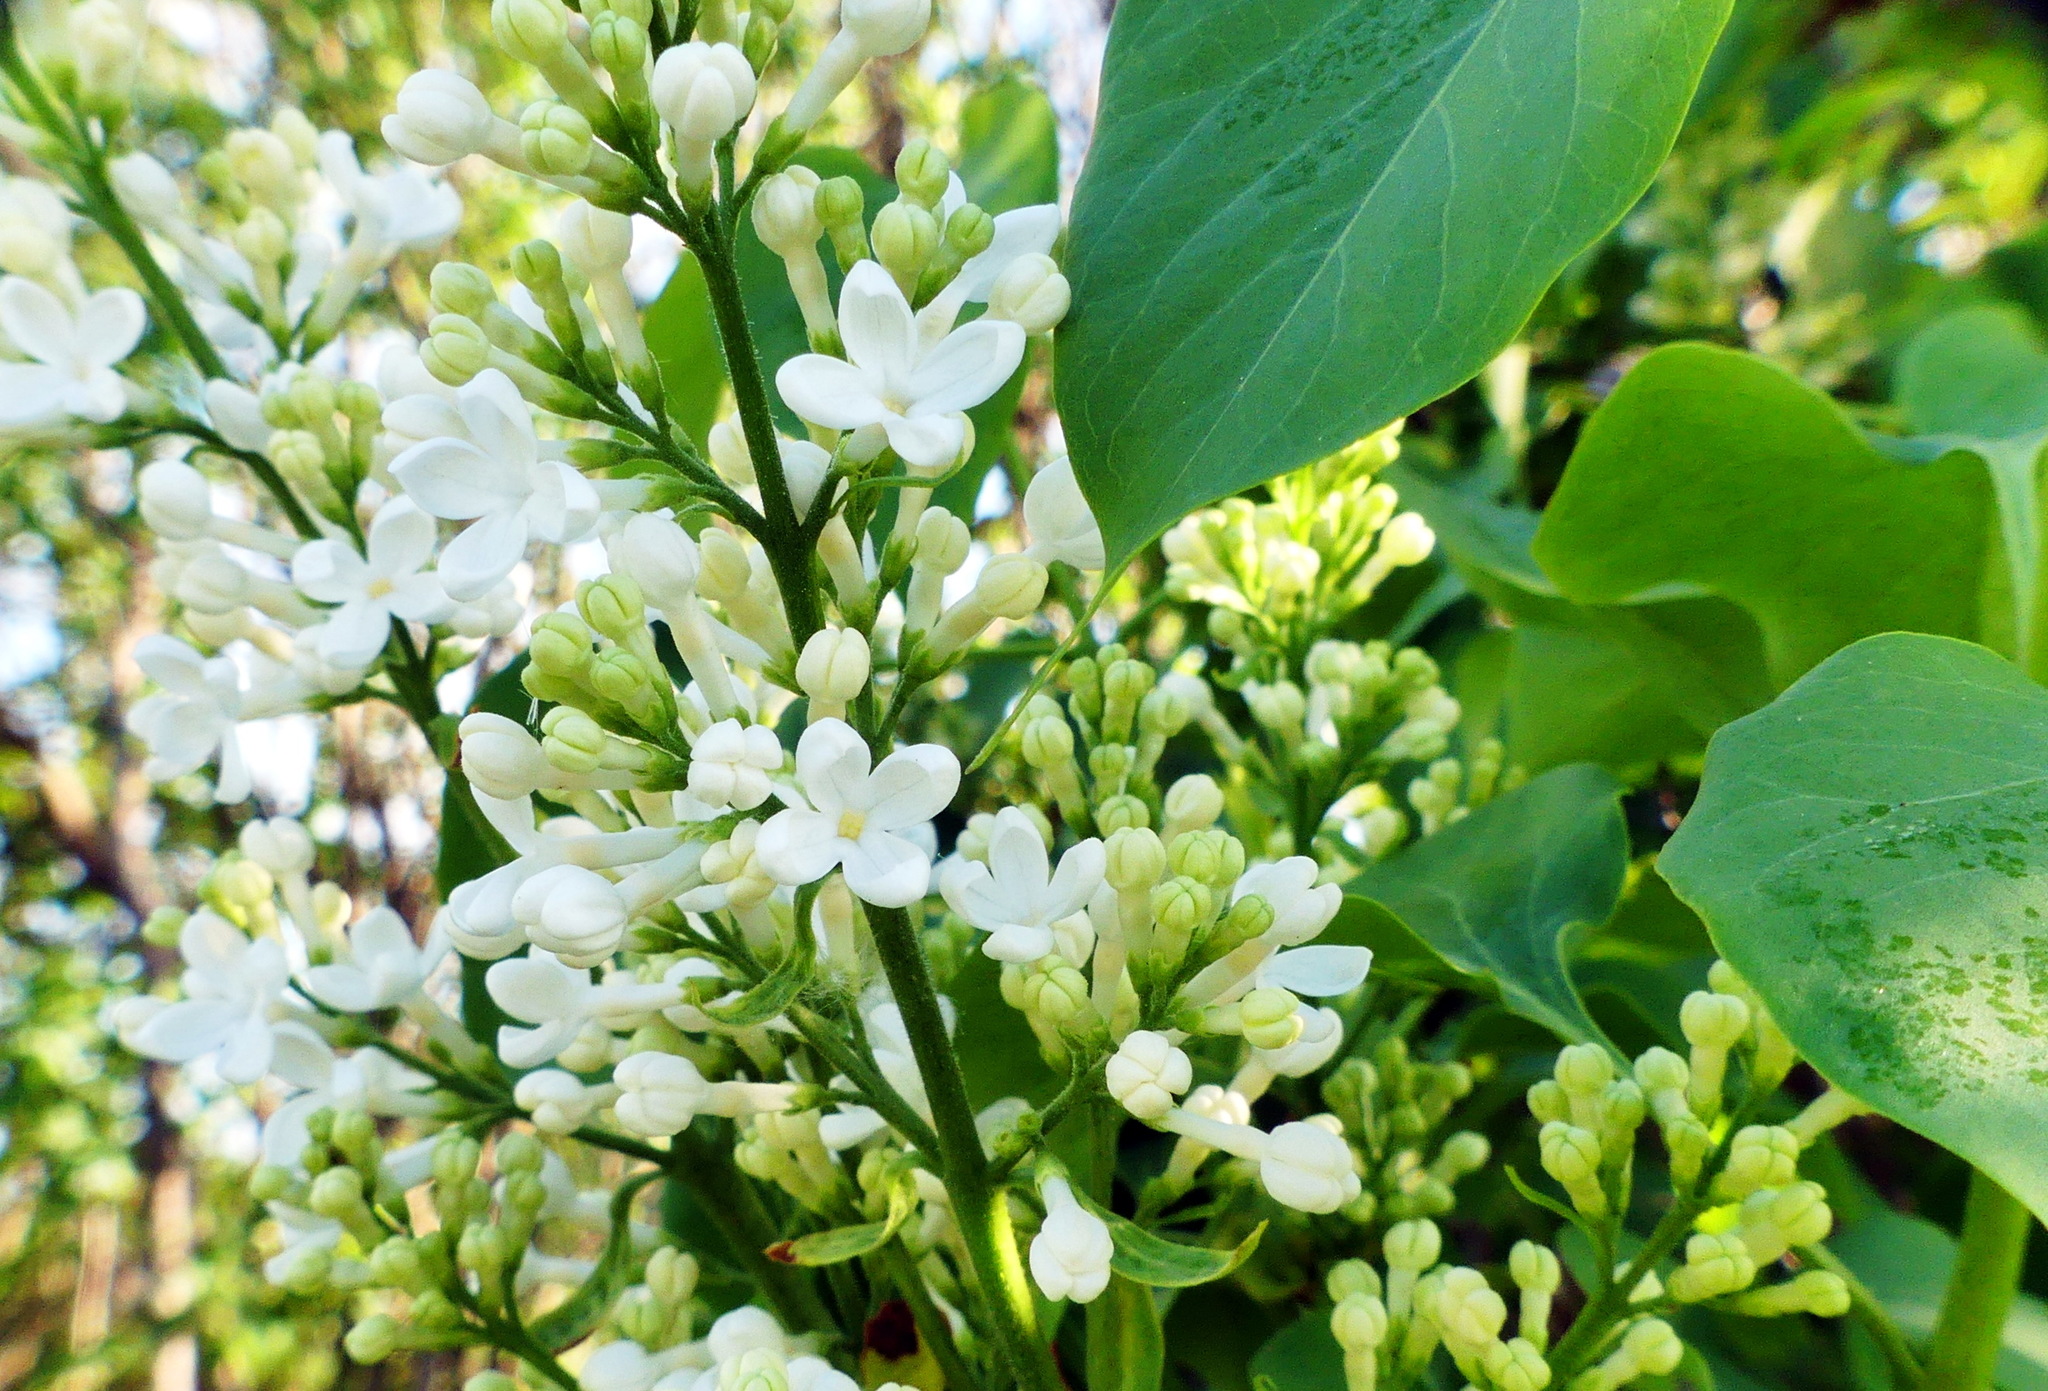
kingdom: Plantae
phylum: Tracheophyta
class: Magnoliopsida
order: Lamiales
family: Oleaceae
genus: Syringa
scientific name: Syringa vulgaris
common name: Common lilac
